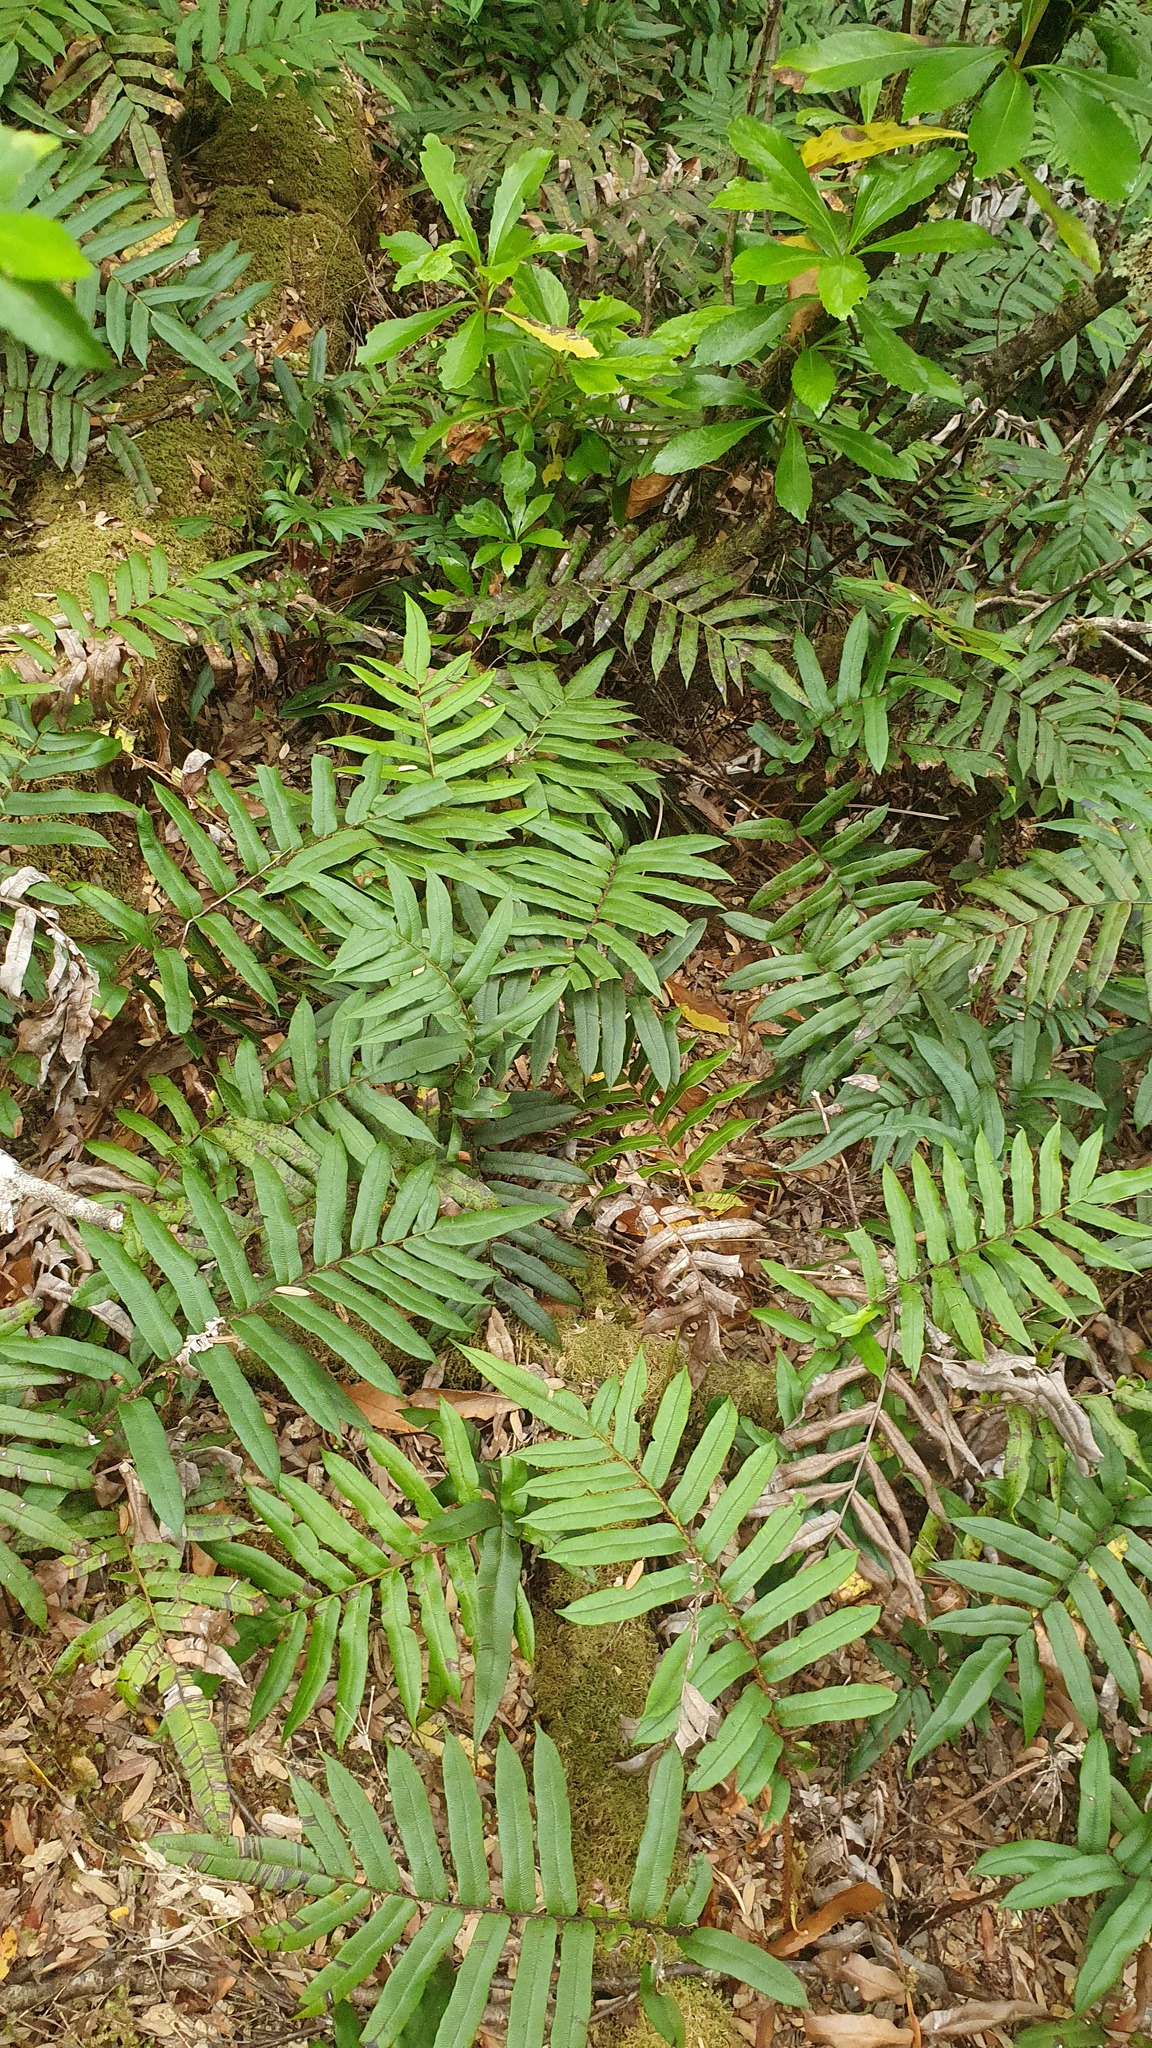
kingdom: Plantae
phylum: Tracheophyta
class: Polypodiopsida
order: Polypodiales
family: Blechnaceae
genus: Parablechnum
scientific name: Parablechnum wattsii
